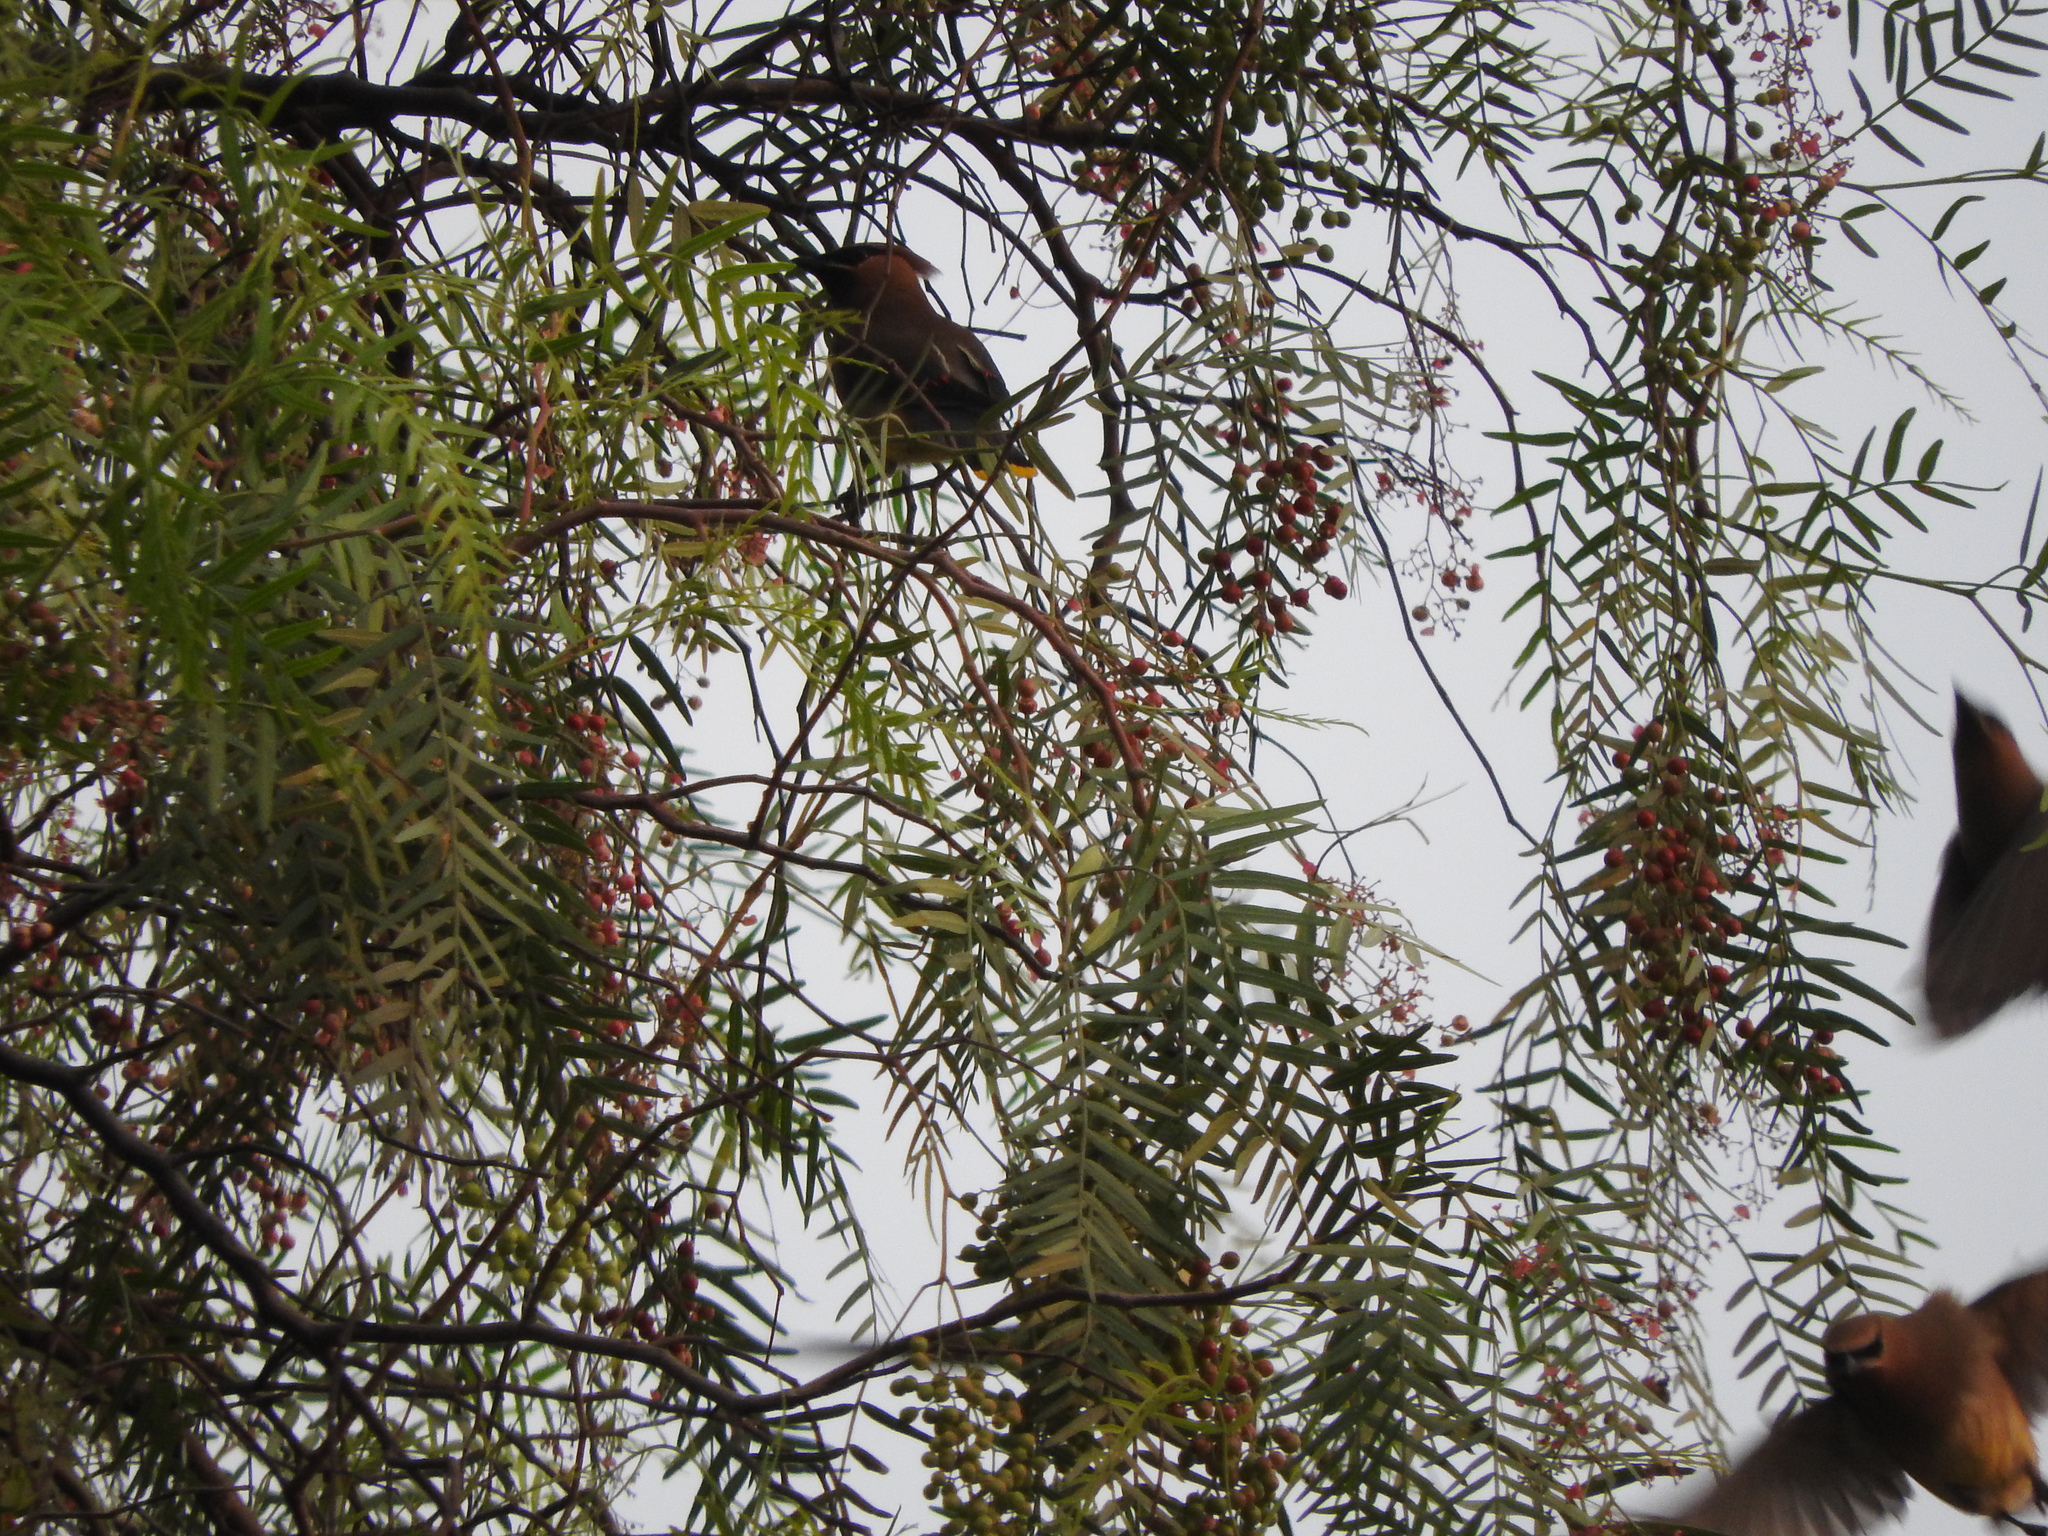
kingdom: Animalia
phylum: Chordata
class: Aves
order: Passeriformes
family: Bombycillidae
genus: Bombycilla
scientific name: Bombycilla cedrorum
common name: Cedar waxwing
